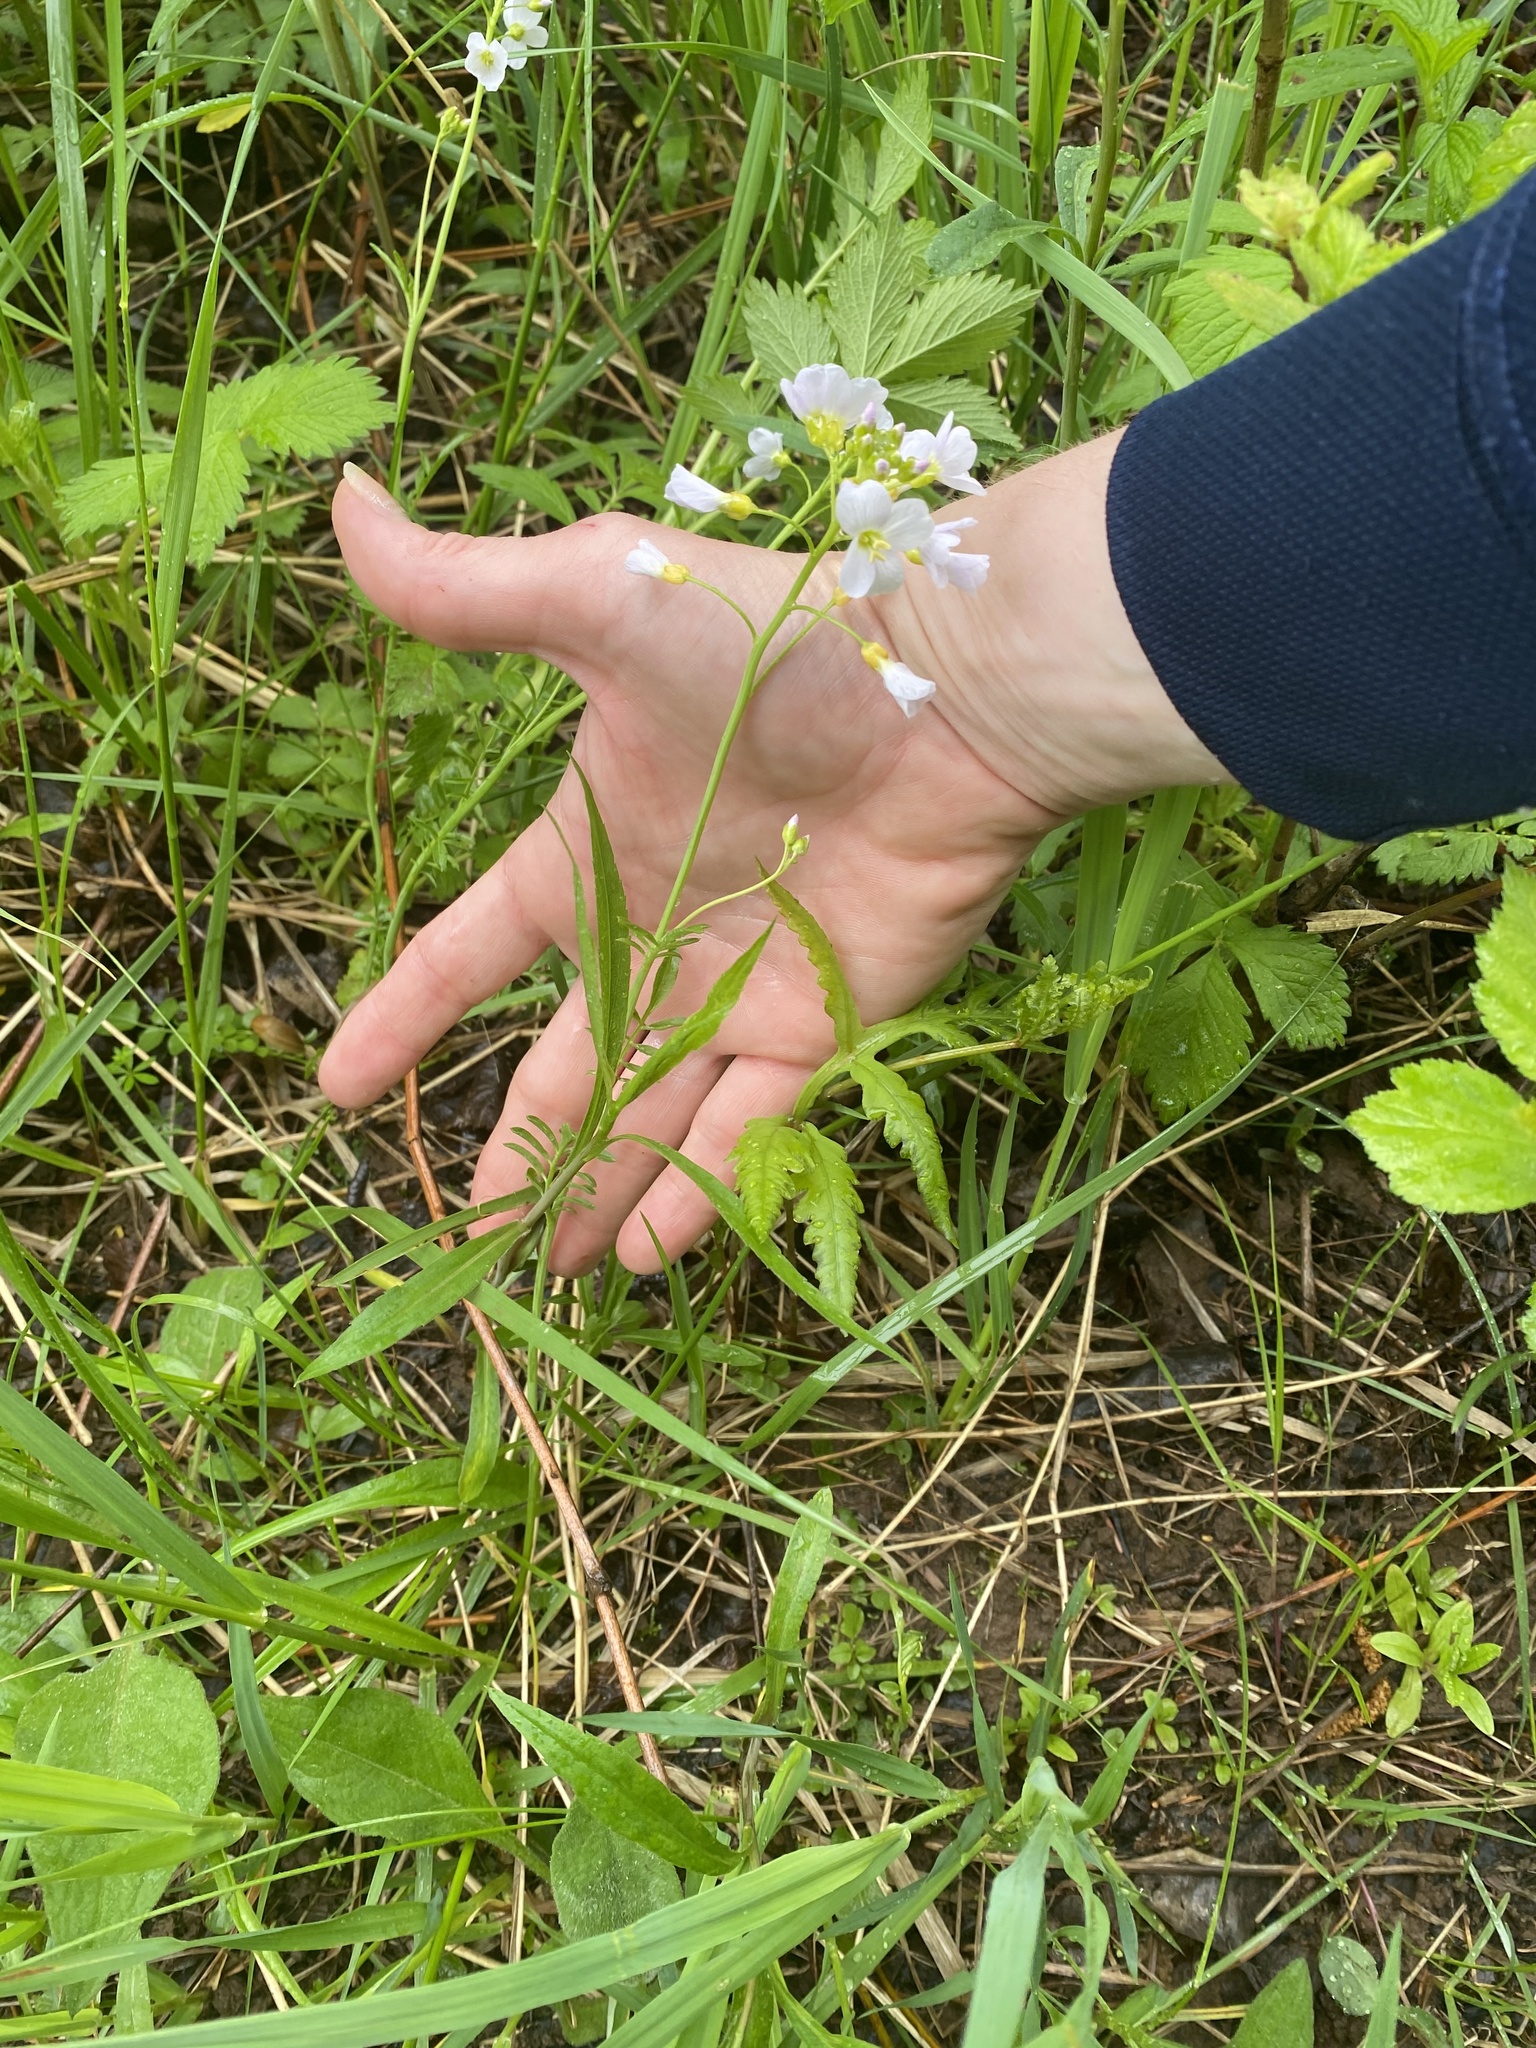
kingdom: Plantae
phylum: Tracheophyta
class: Magnoliopsida
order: Brassicales
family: Brassicaceae
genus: Cardamine
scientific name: Cardamine pratensis
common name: Cuckoo flower
